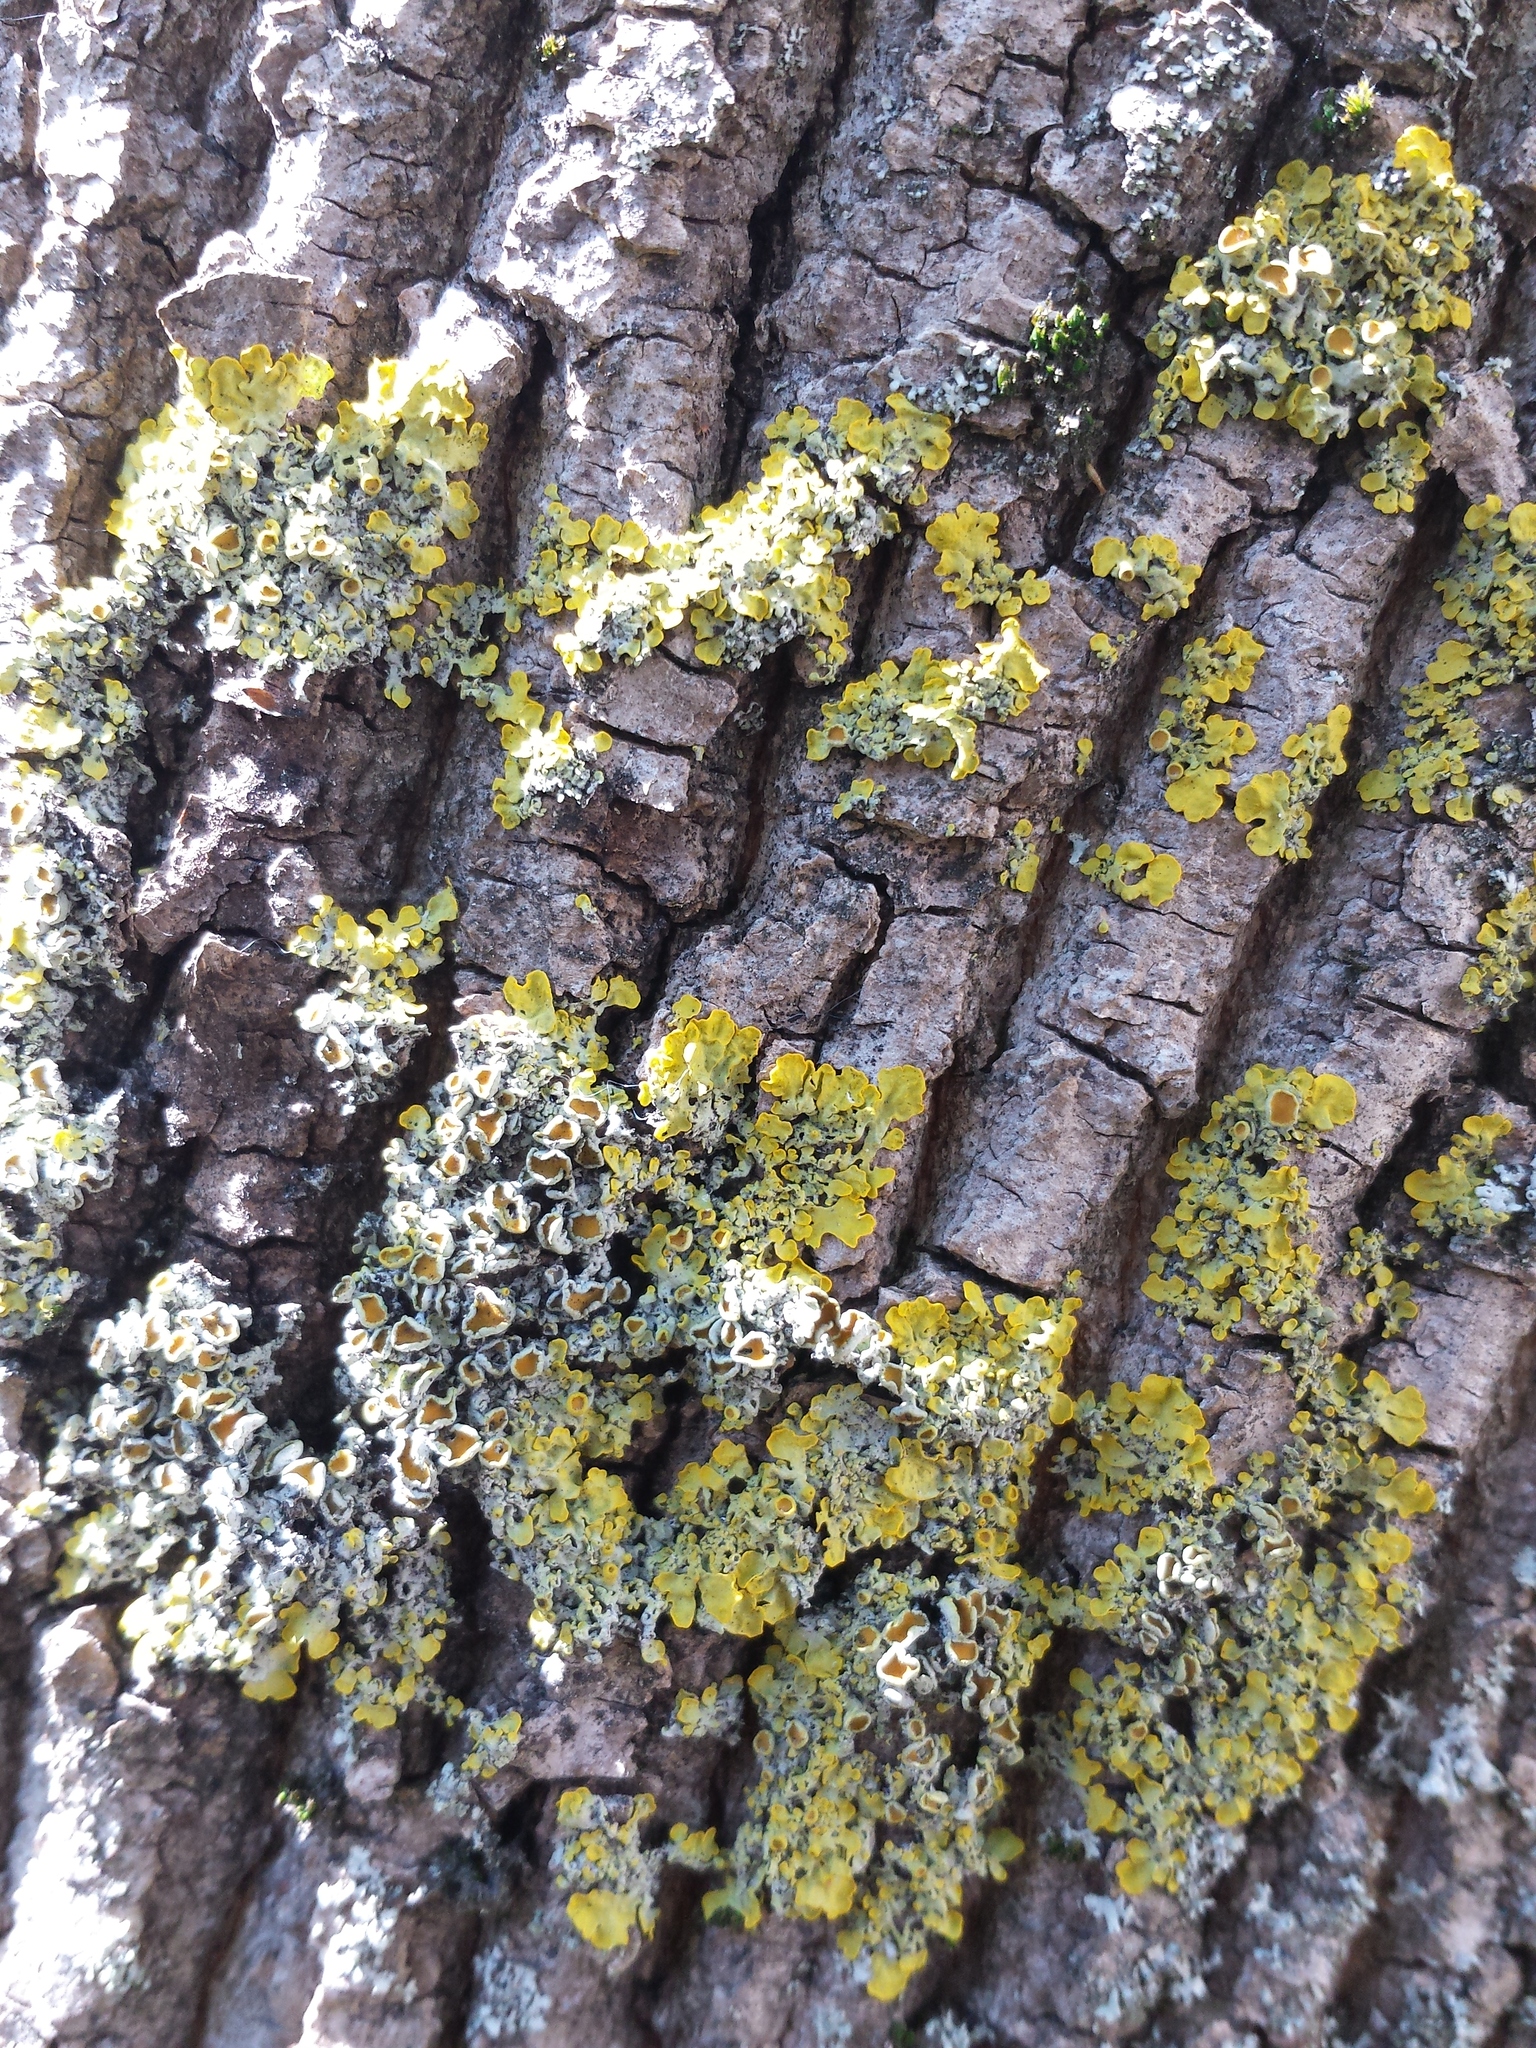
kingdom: Fungi
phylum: Ascomycota
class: Lecanoromycetes
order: Teloschistales
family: Teloschistaceae
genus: Xanthoria
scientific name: Xanthoria parietina
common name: Common orange lichen
